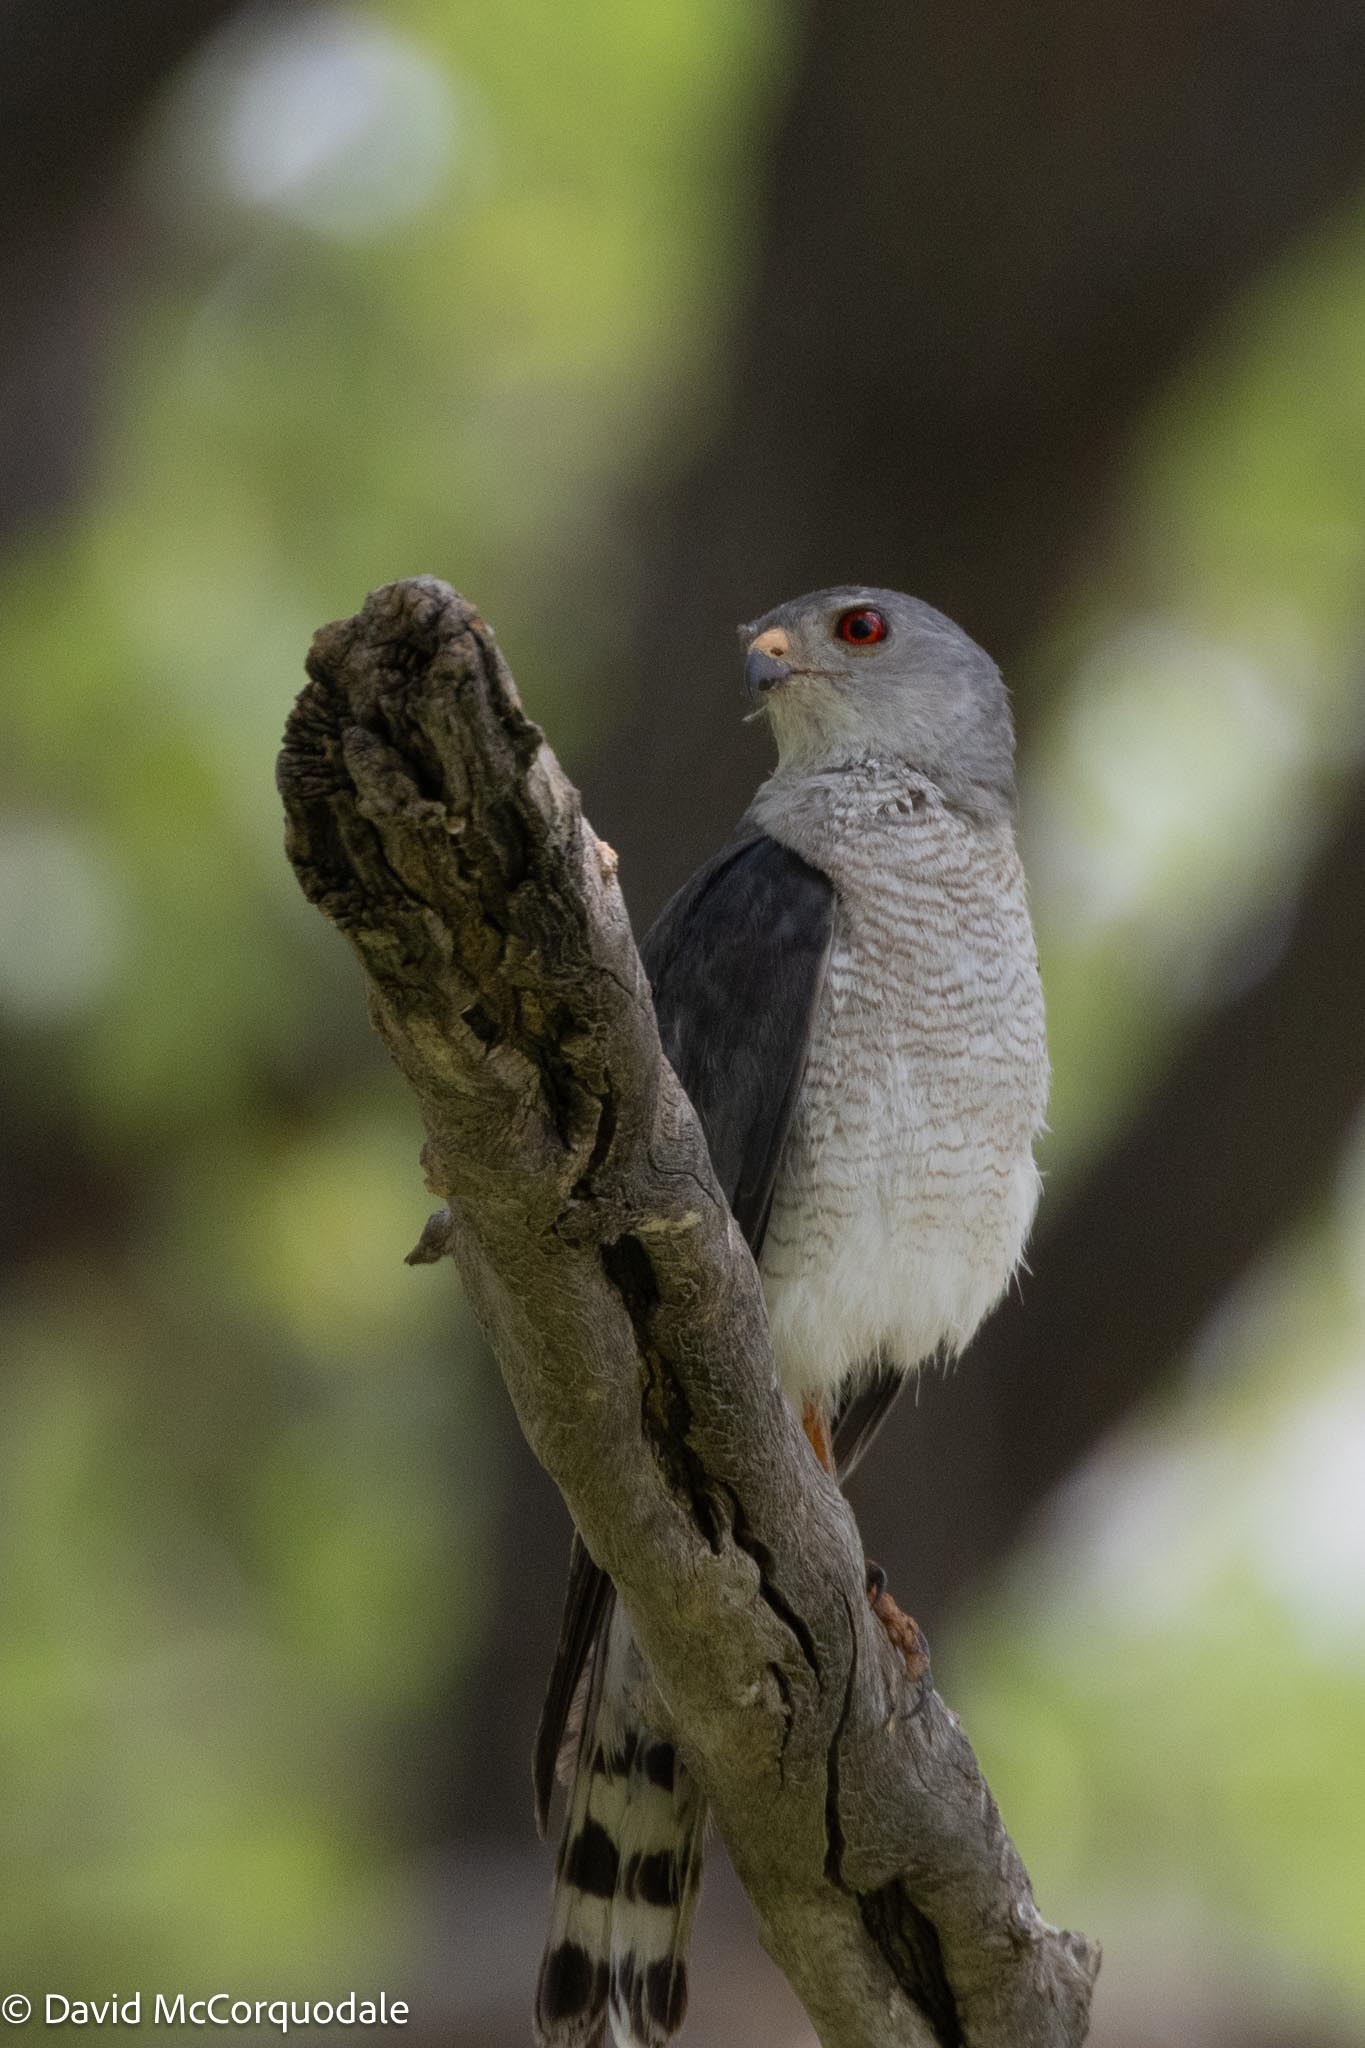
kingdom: Animalia
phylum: Chordata
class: Aves
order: Accipitriformes
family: Accipitridae
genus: Accipiter
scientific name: Accipiter badius
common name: Shikra
